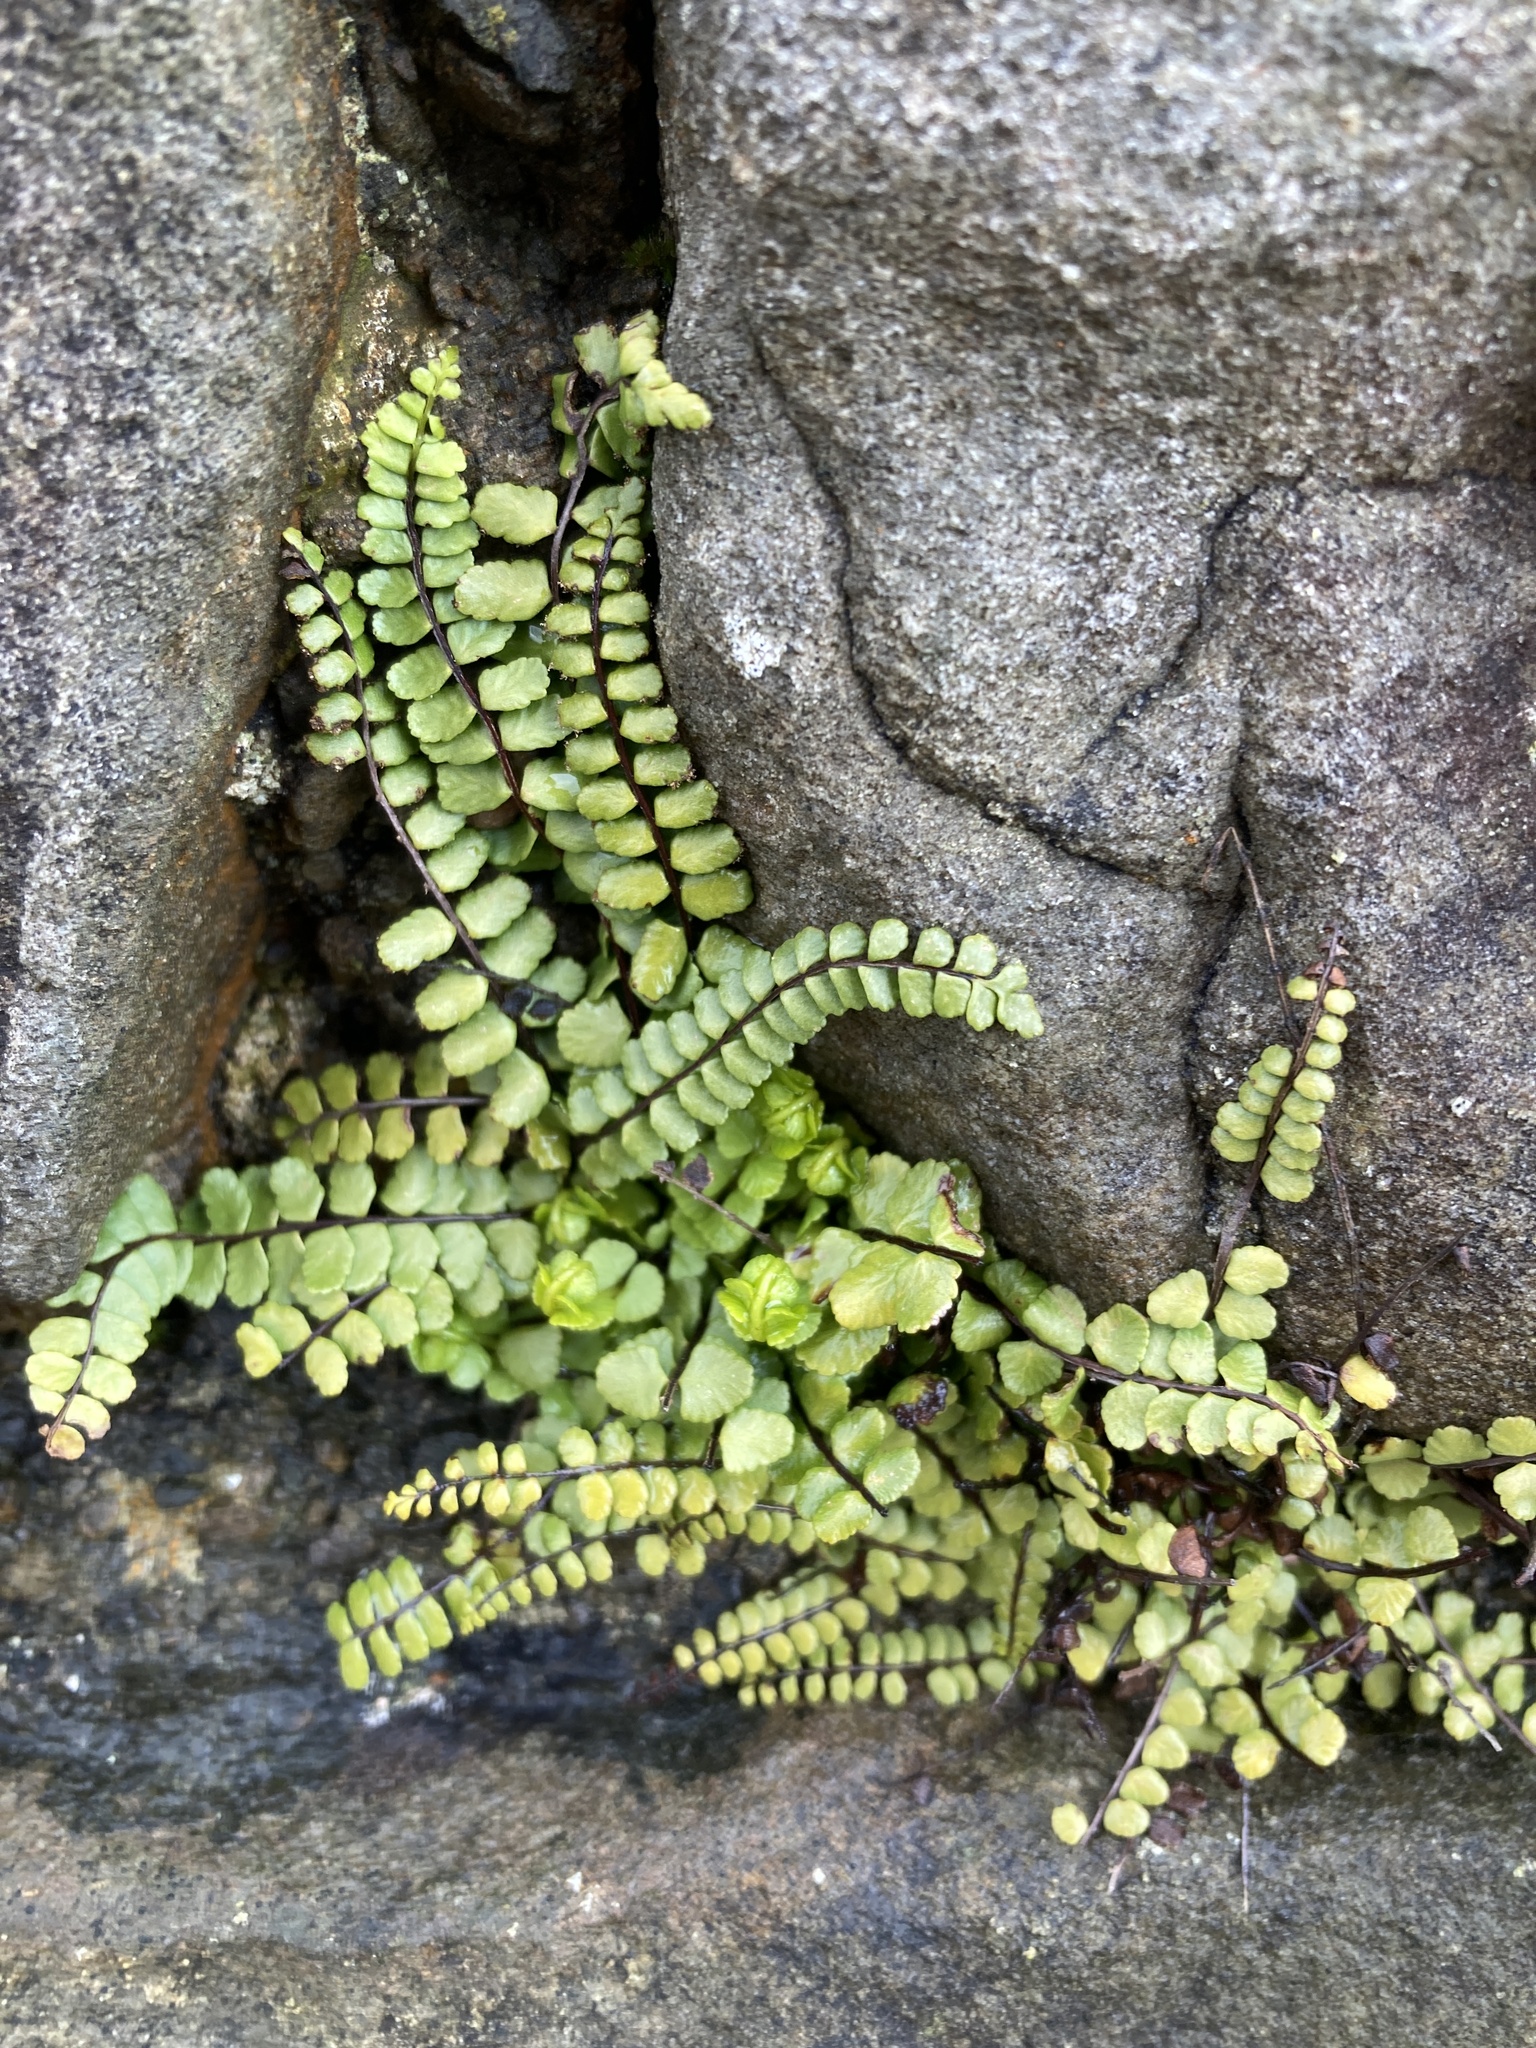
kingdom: Plantae
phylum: Tracheophyta
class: Polypodiopsida
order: Polypodiales
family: Aspleniaceae
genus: Asplenium
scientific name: Asplenium trichomanes
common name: Maidenhair spleenwort
